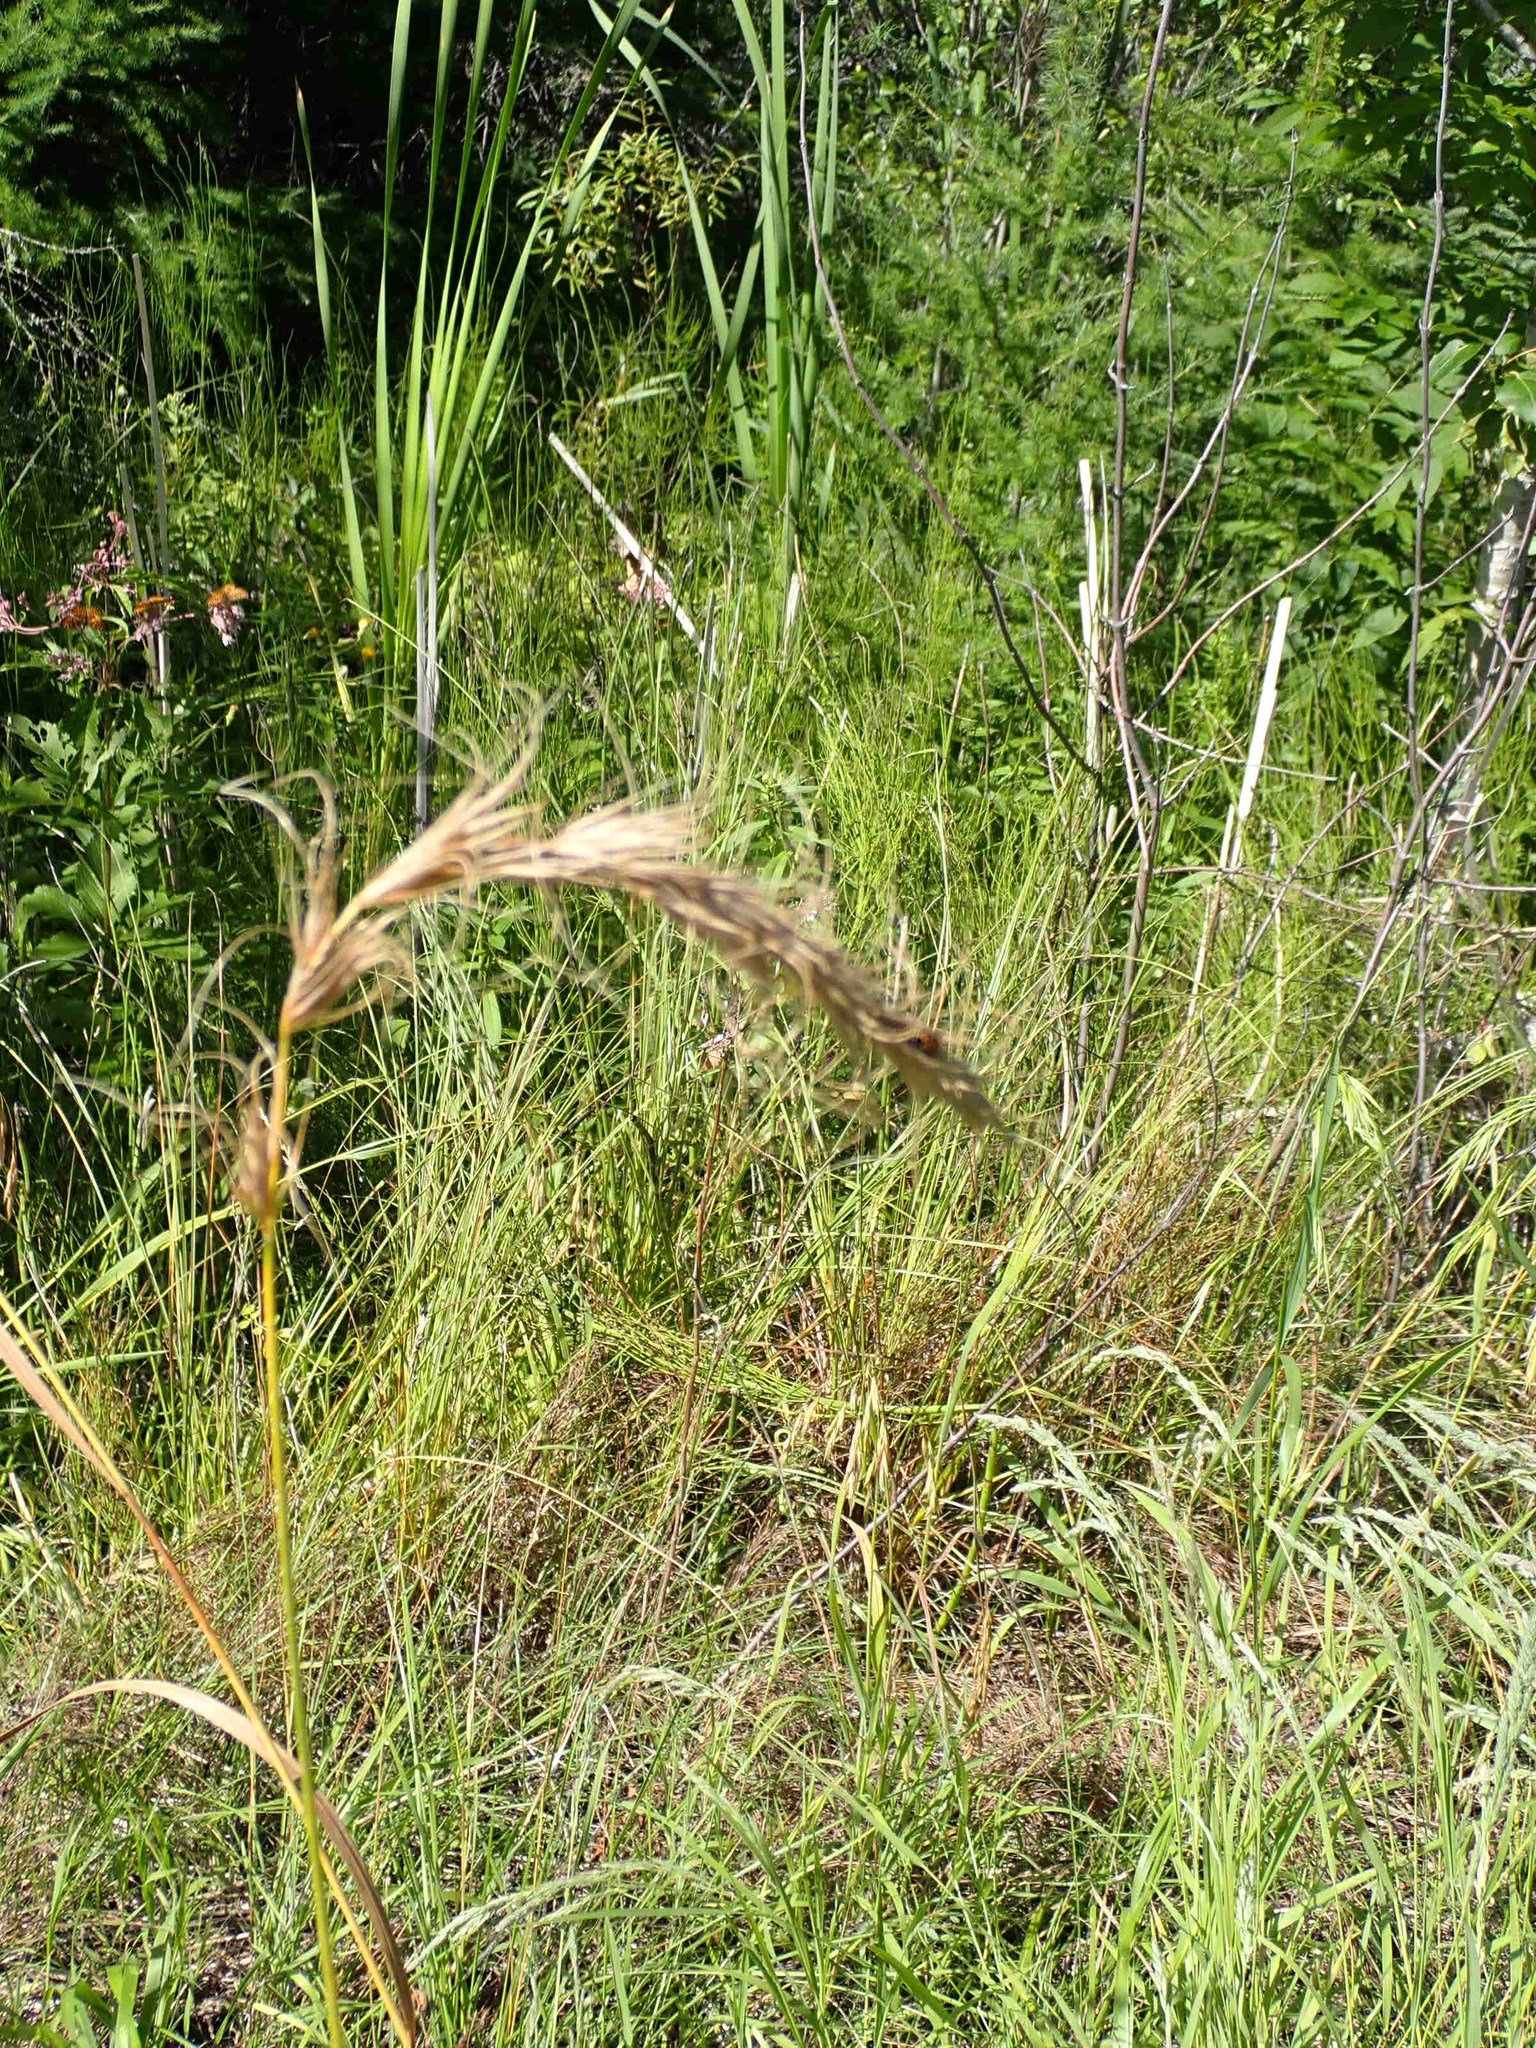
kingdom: Plantae
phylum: Tracheophyta
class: Liliopsida
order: Poales
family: Poaceae
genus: Elymus
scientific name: Elymus canadensis
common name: Canada wild rye
